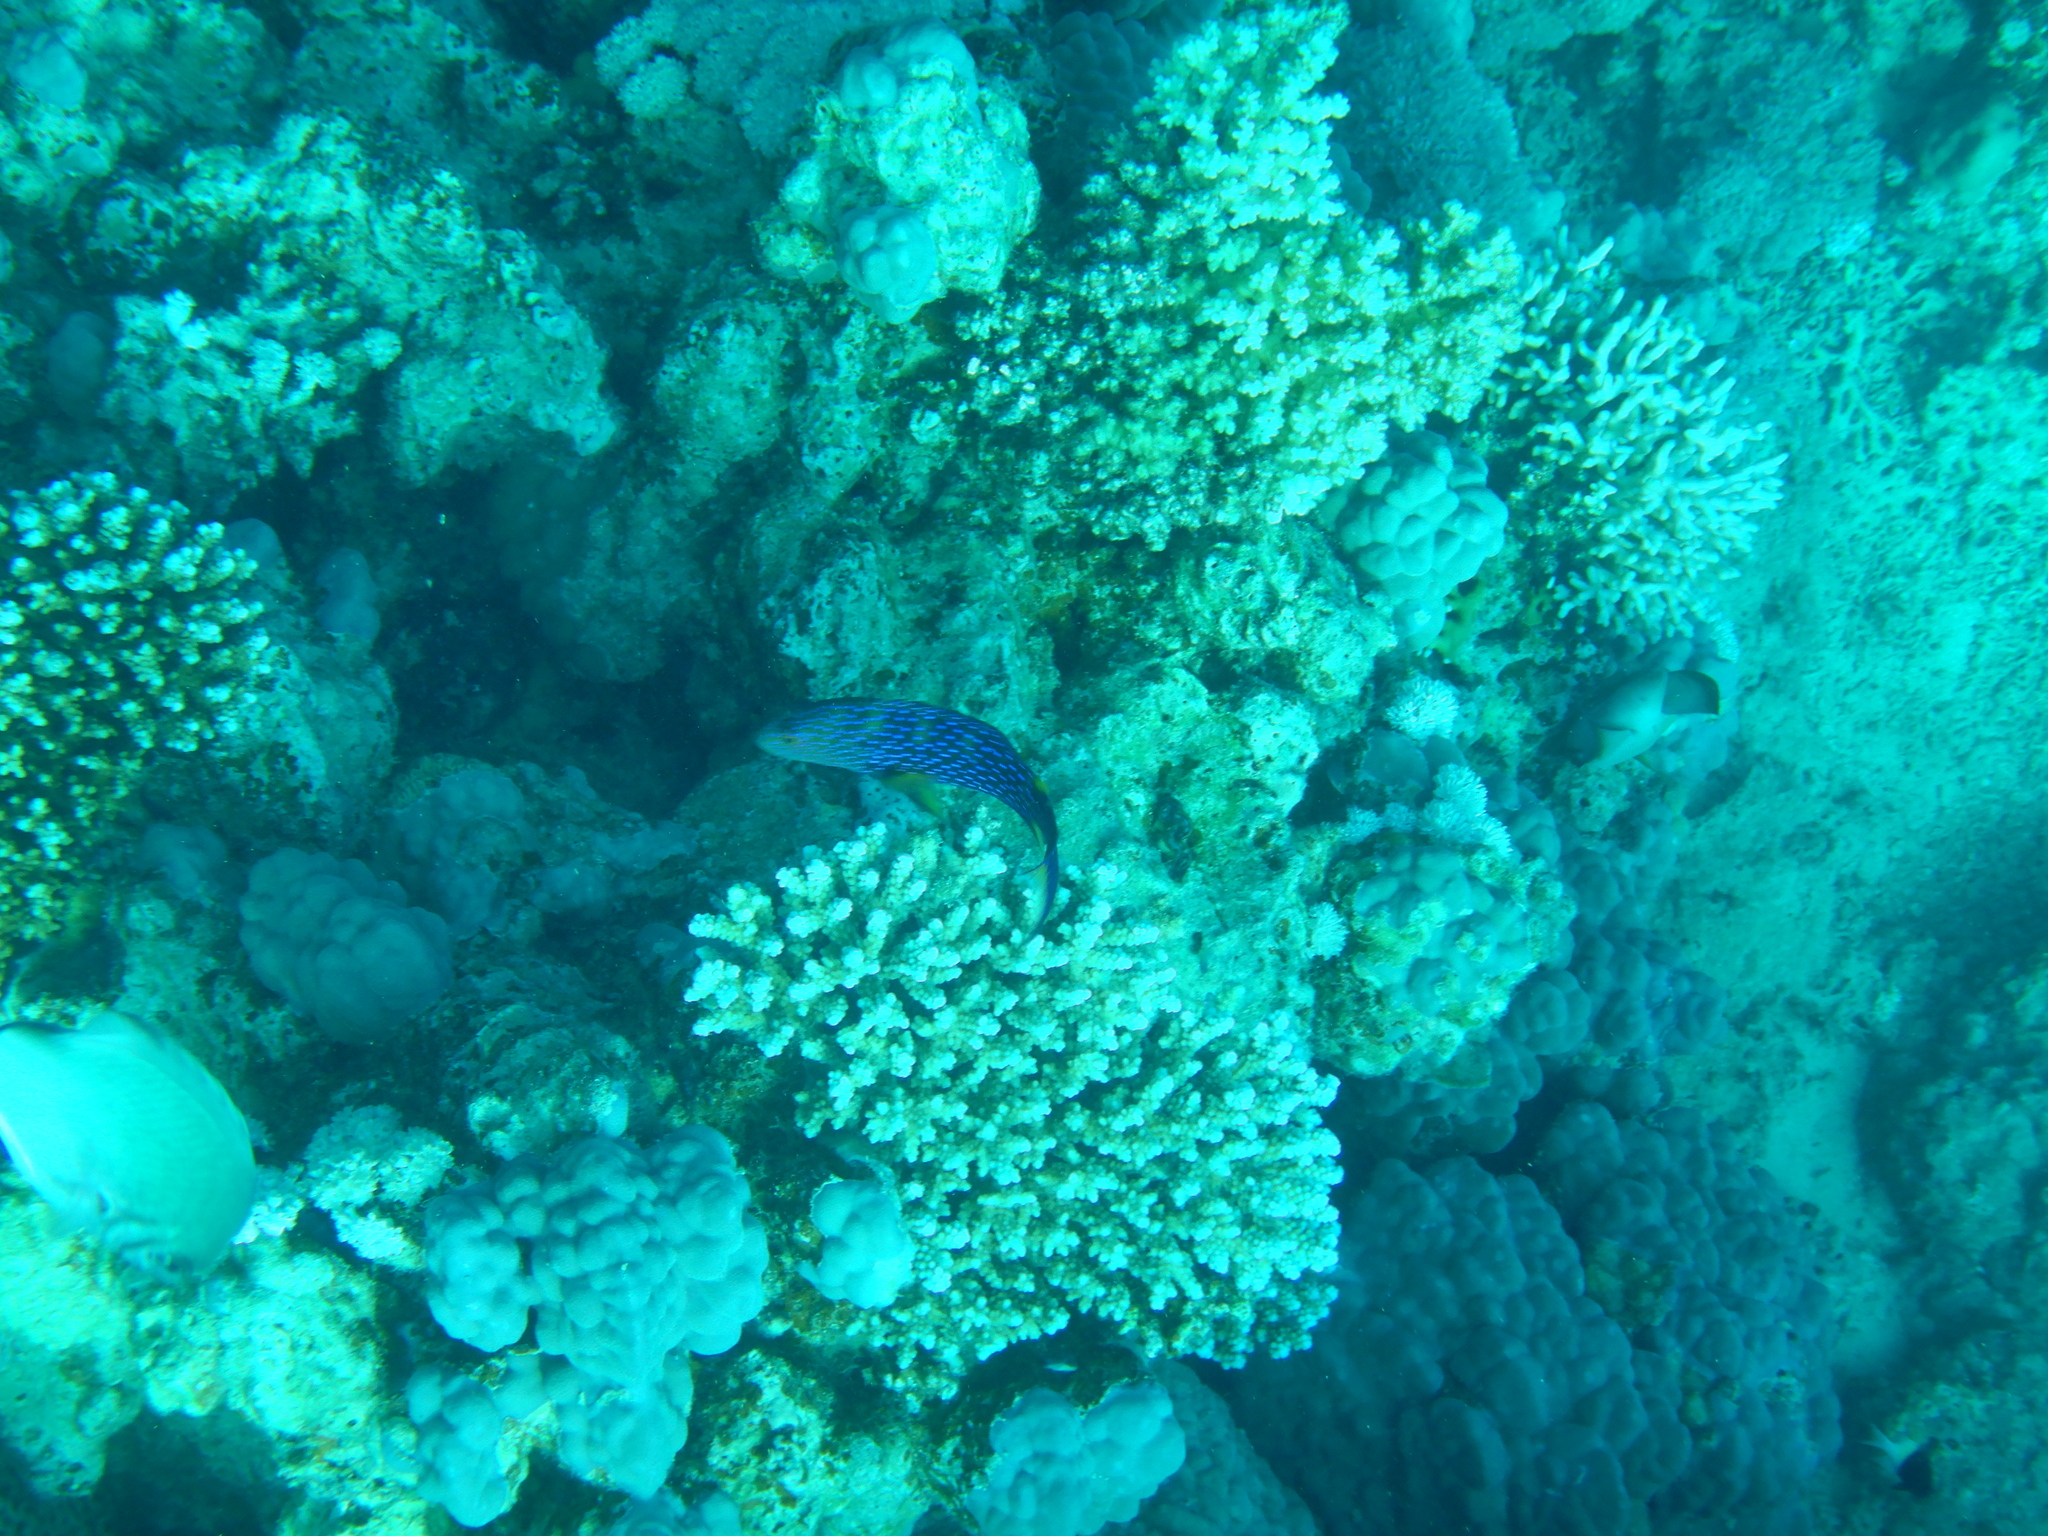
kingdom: Animalia
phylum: Chordata
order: Perciformes
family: Serranidae
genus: Variola
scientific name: Variola louti
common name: Yellow-edged lyretail
